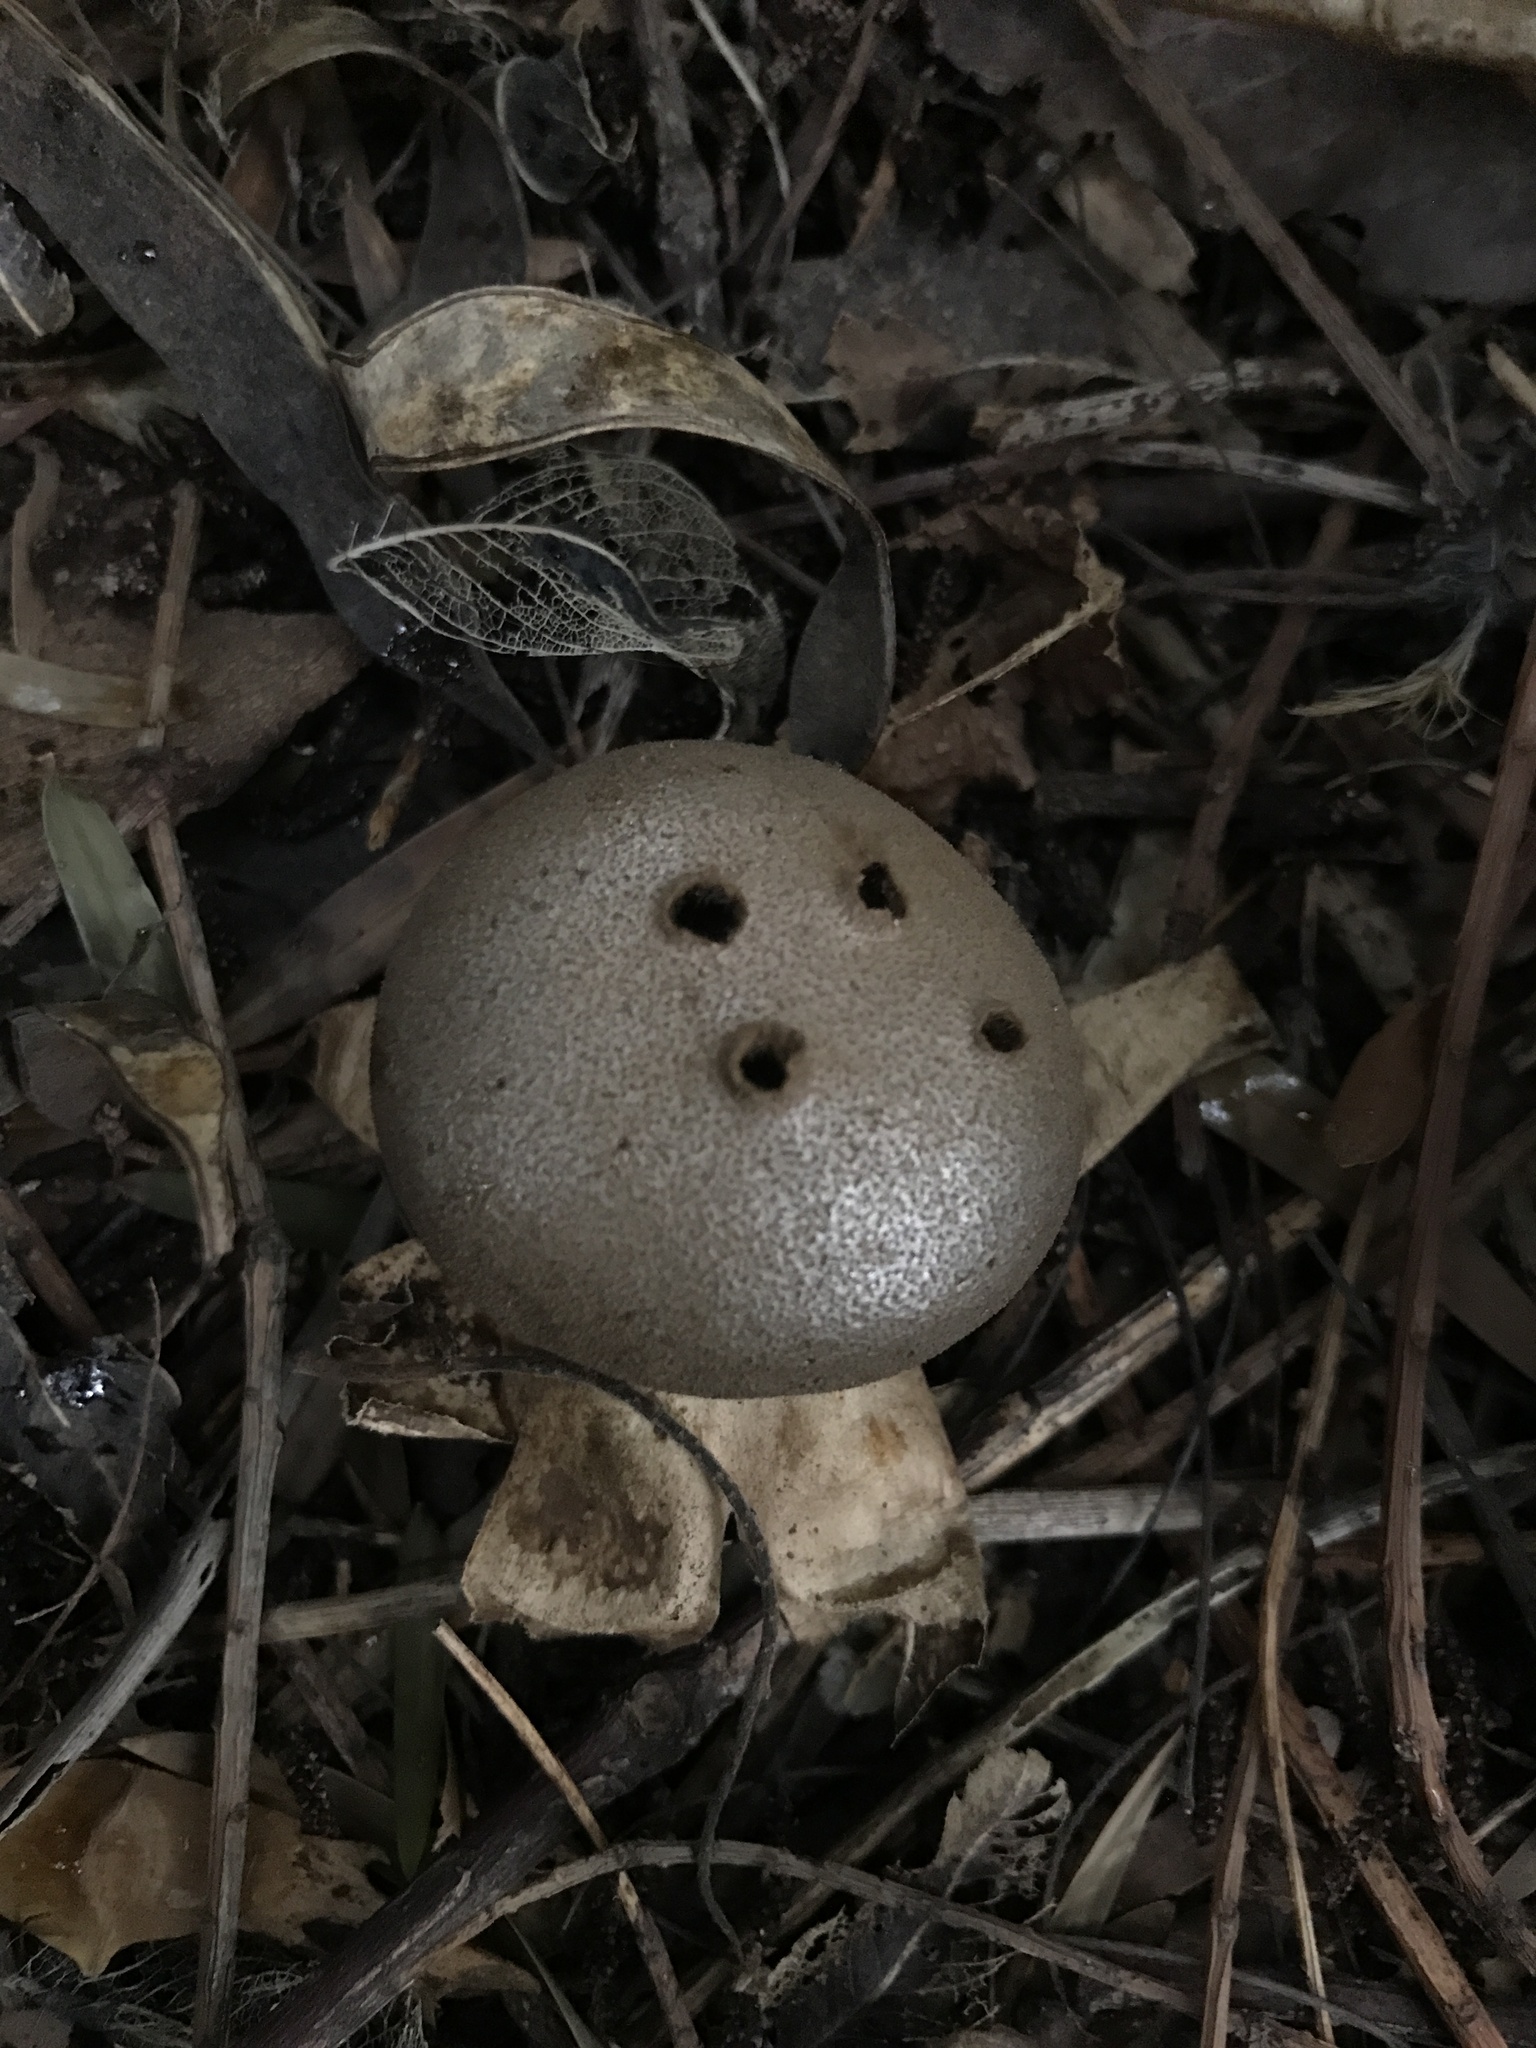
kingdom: Fungi
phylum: Basidiomycota
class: Agaricomycetes
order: Geastrales
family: Geastraceae
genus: Myriostoma
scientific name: Myriostoma calongei
